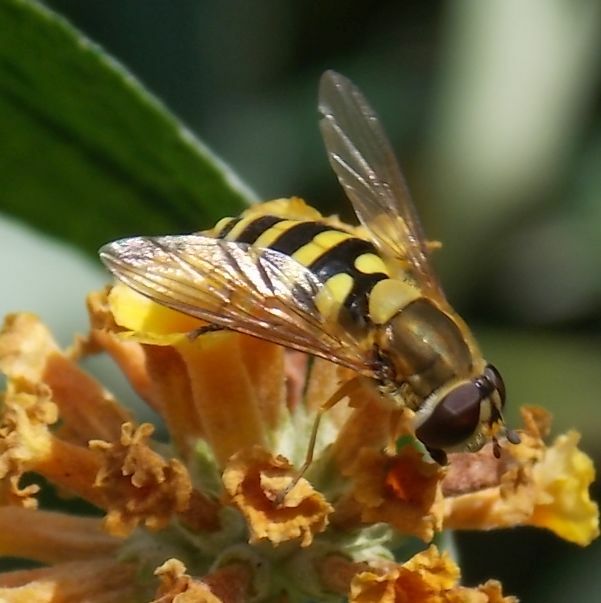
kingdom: Animalia
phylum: Arthropoda
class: Insecta
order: Diptera
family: Syrphidae
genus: Syrphus
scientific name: Syrphus
